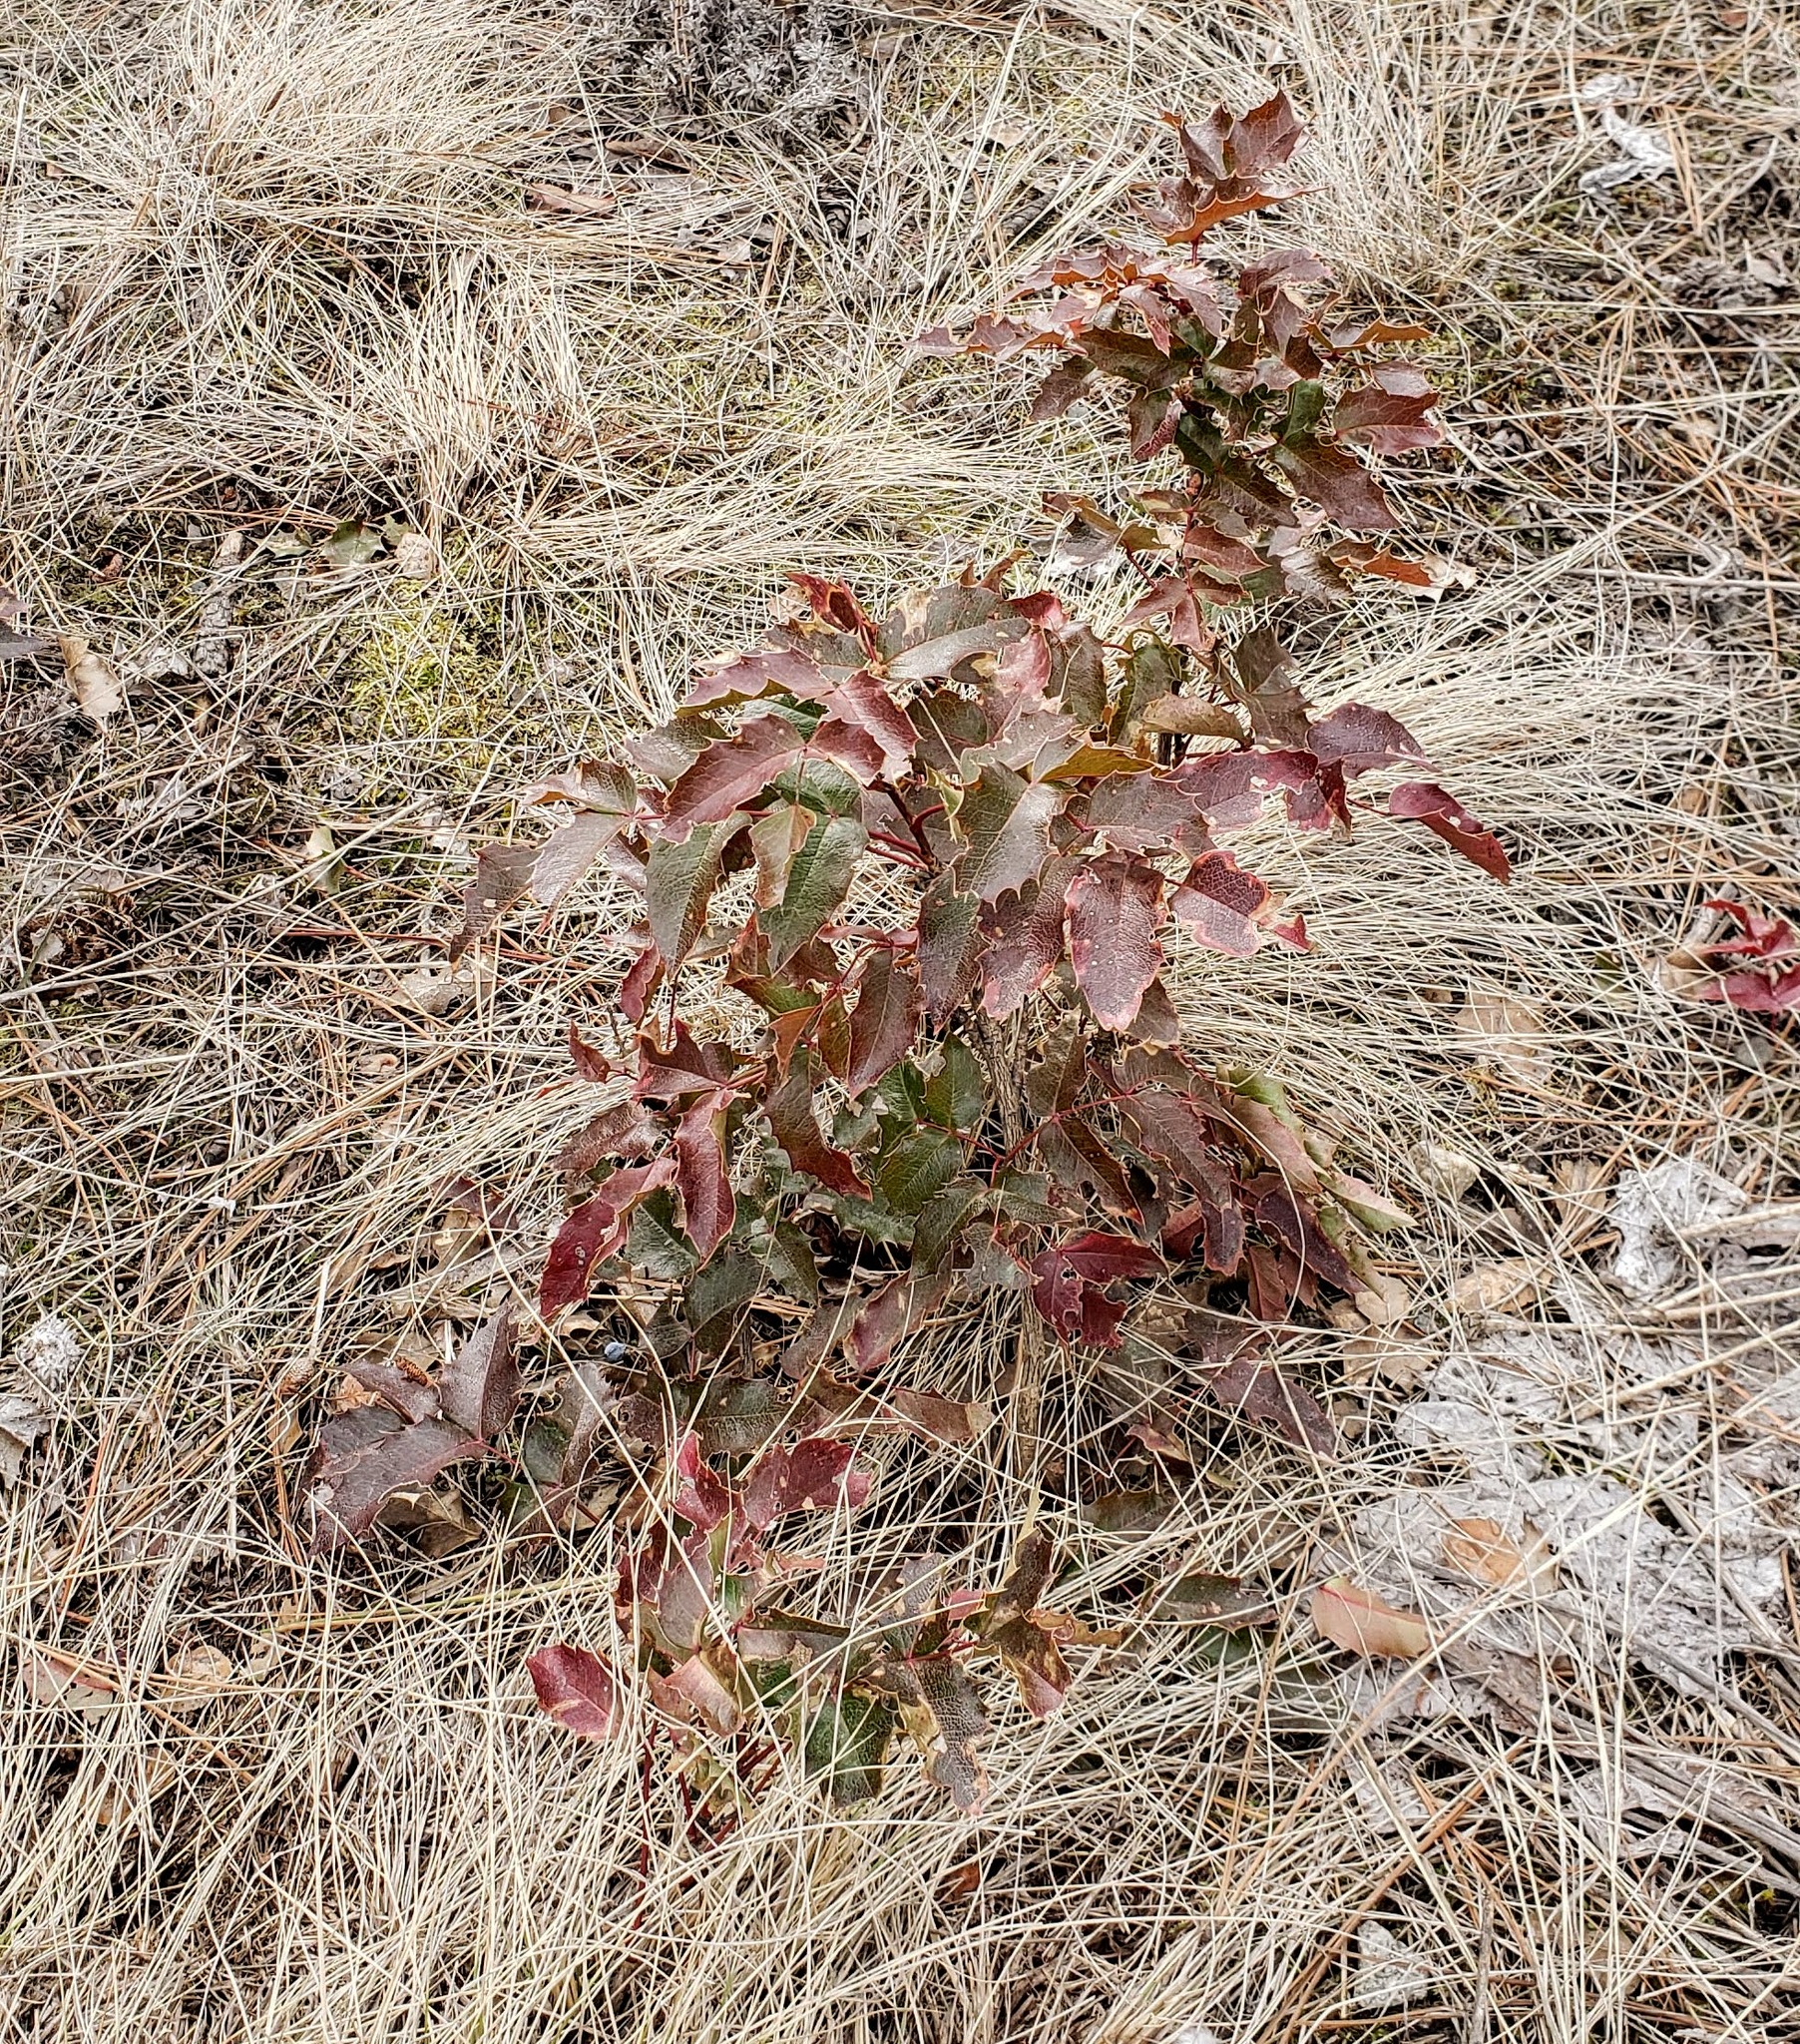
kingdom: Plantae
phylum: Tracheophyta
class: Magnoliopsida
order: Ranunculales
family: Berberidaceae
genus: Mahonia
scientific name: Mahonia aquifolium
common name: Oregon-grape
